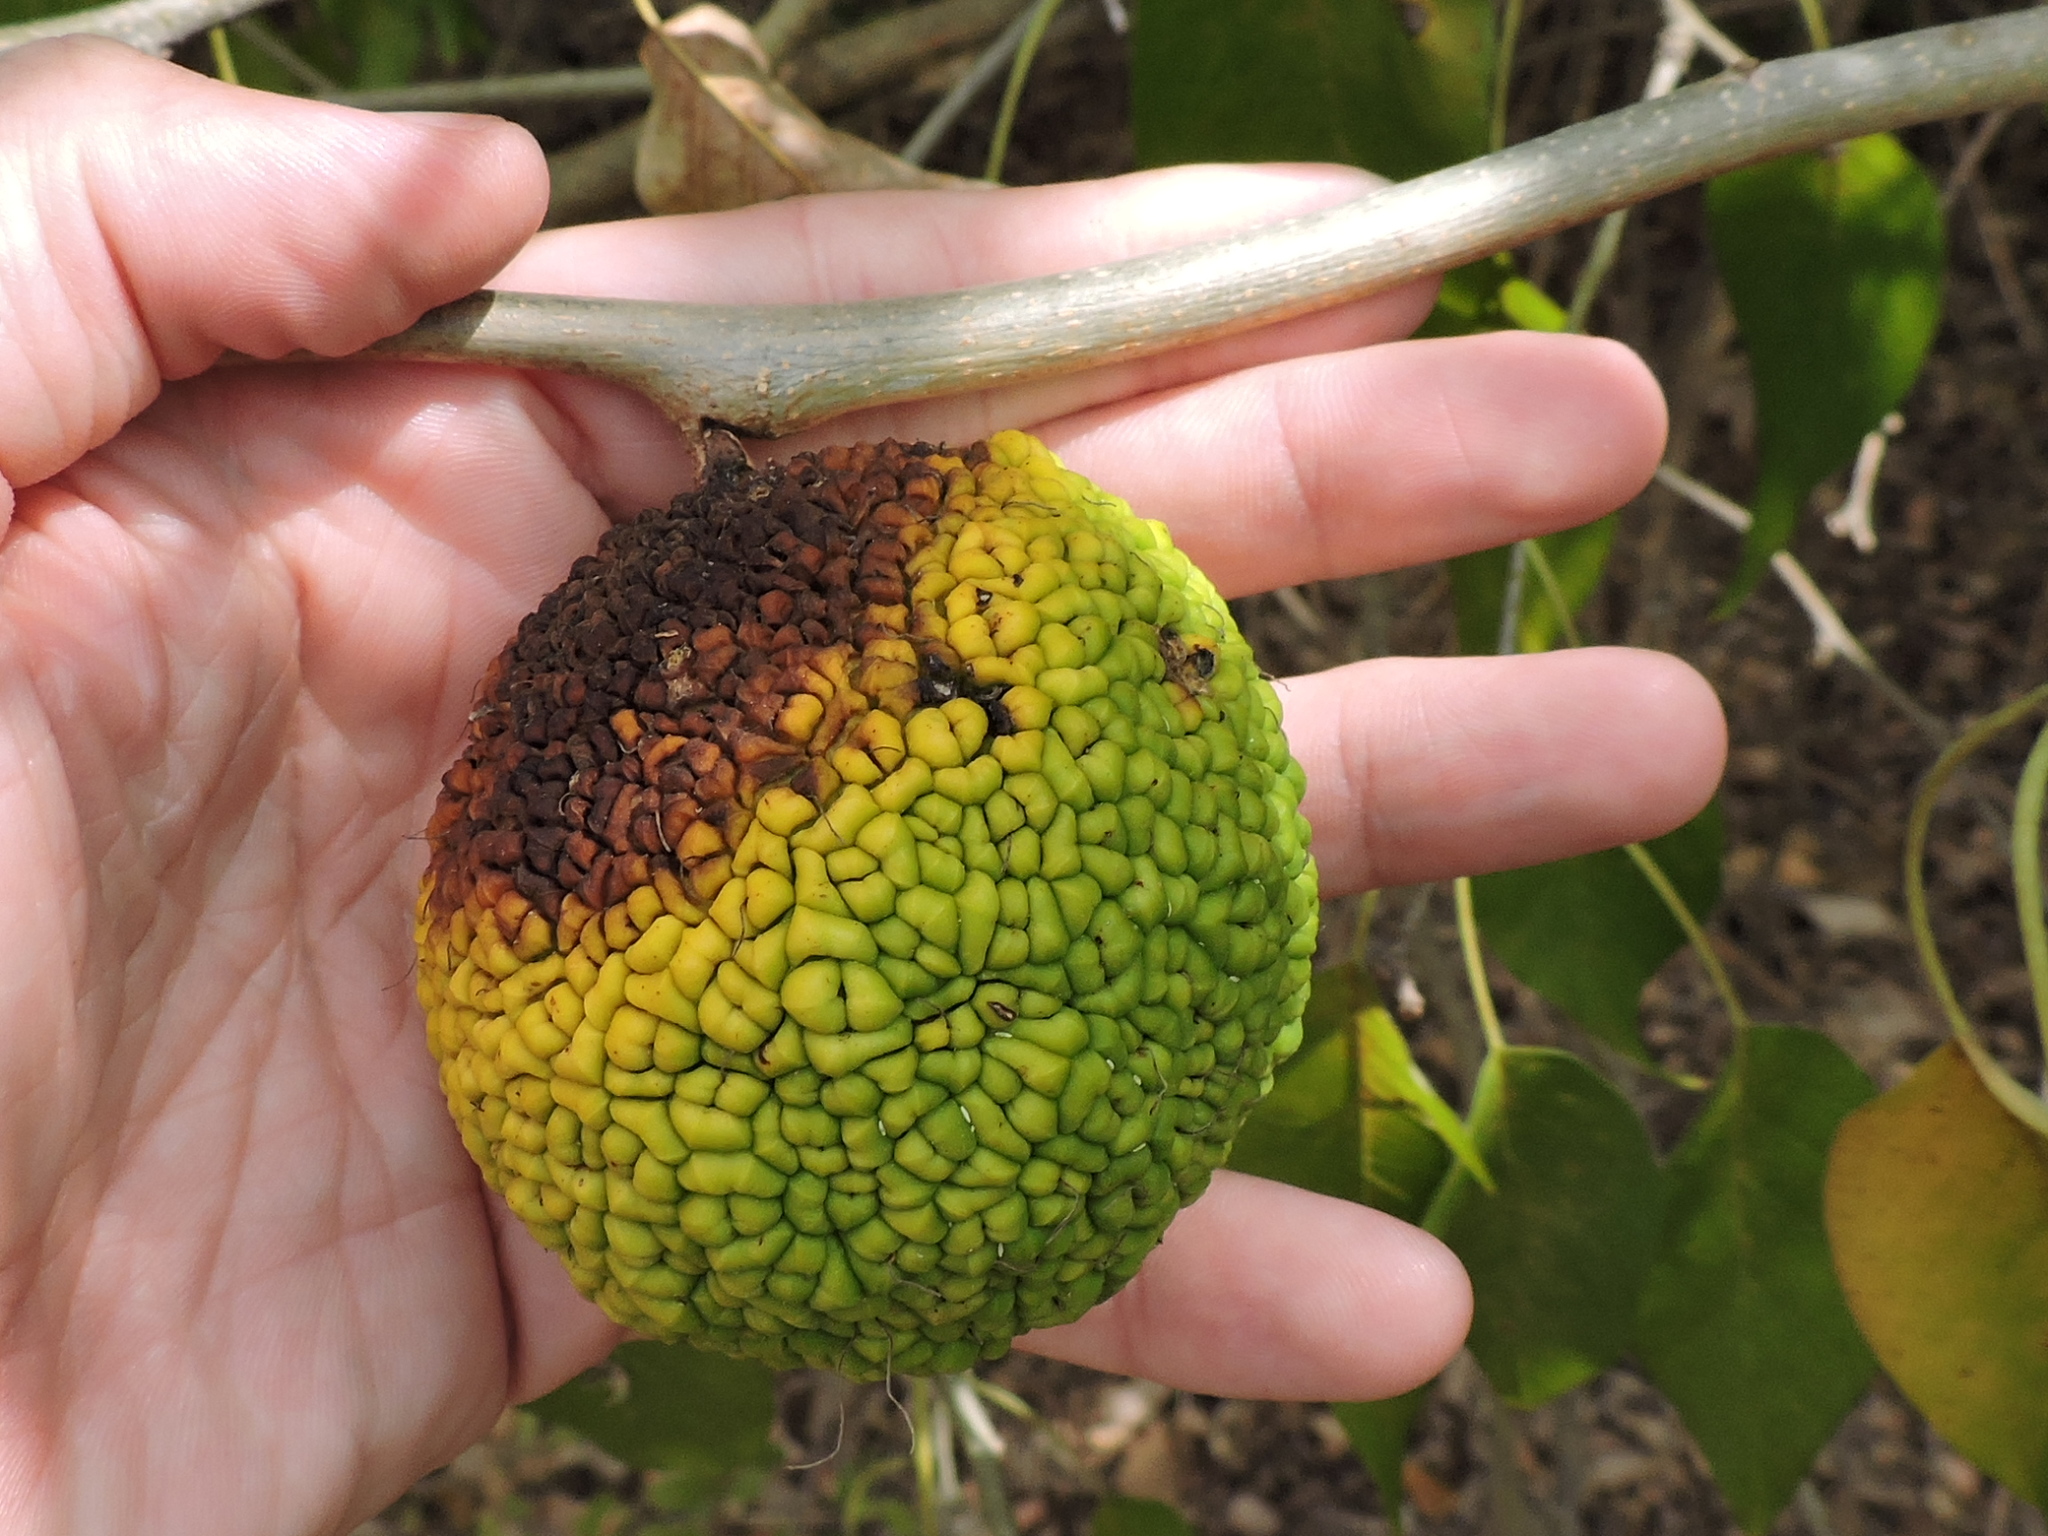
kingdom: Plantae
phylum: Tracheophyta
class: Magnoliopsida
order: Rosales
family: Moraceae
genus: Maclura
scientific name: Maclura pomifera
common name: Osage-orange
